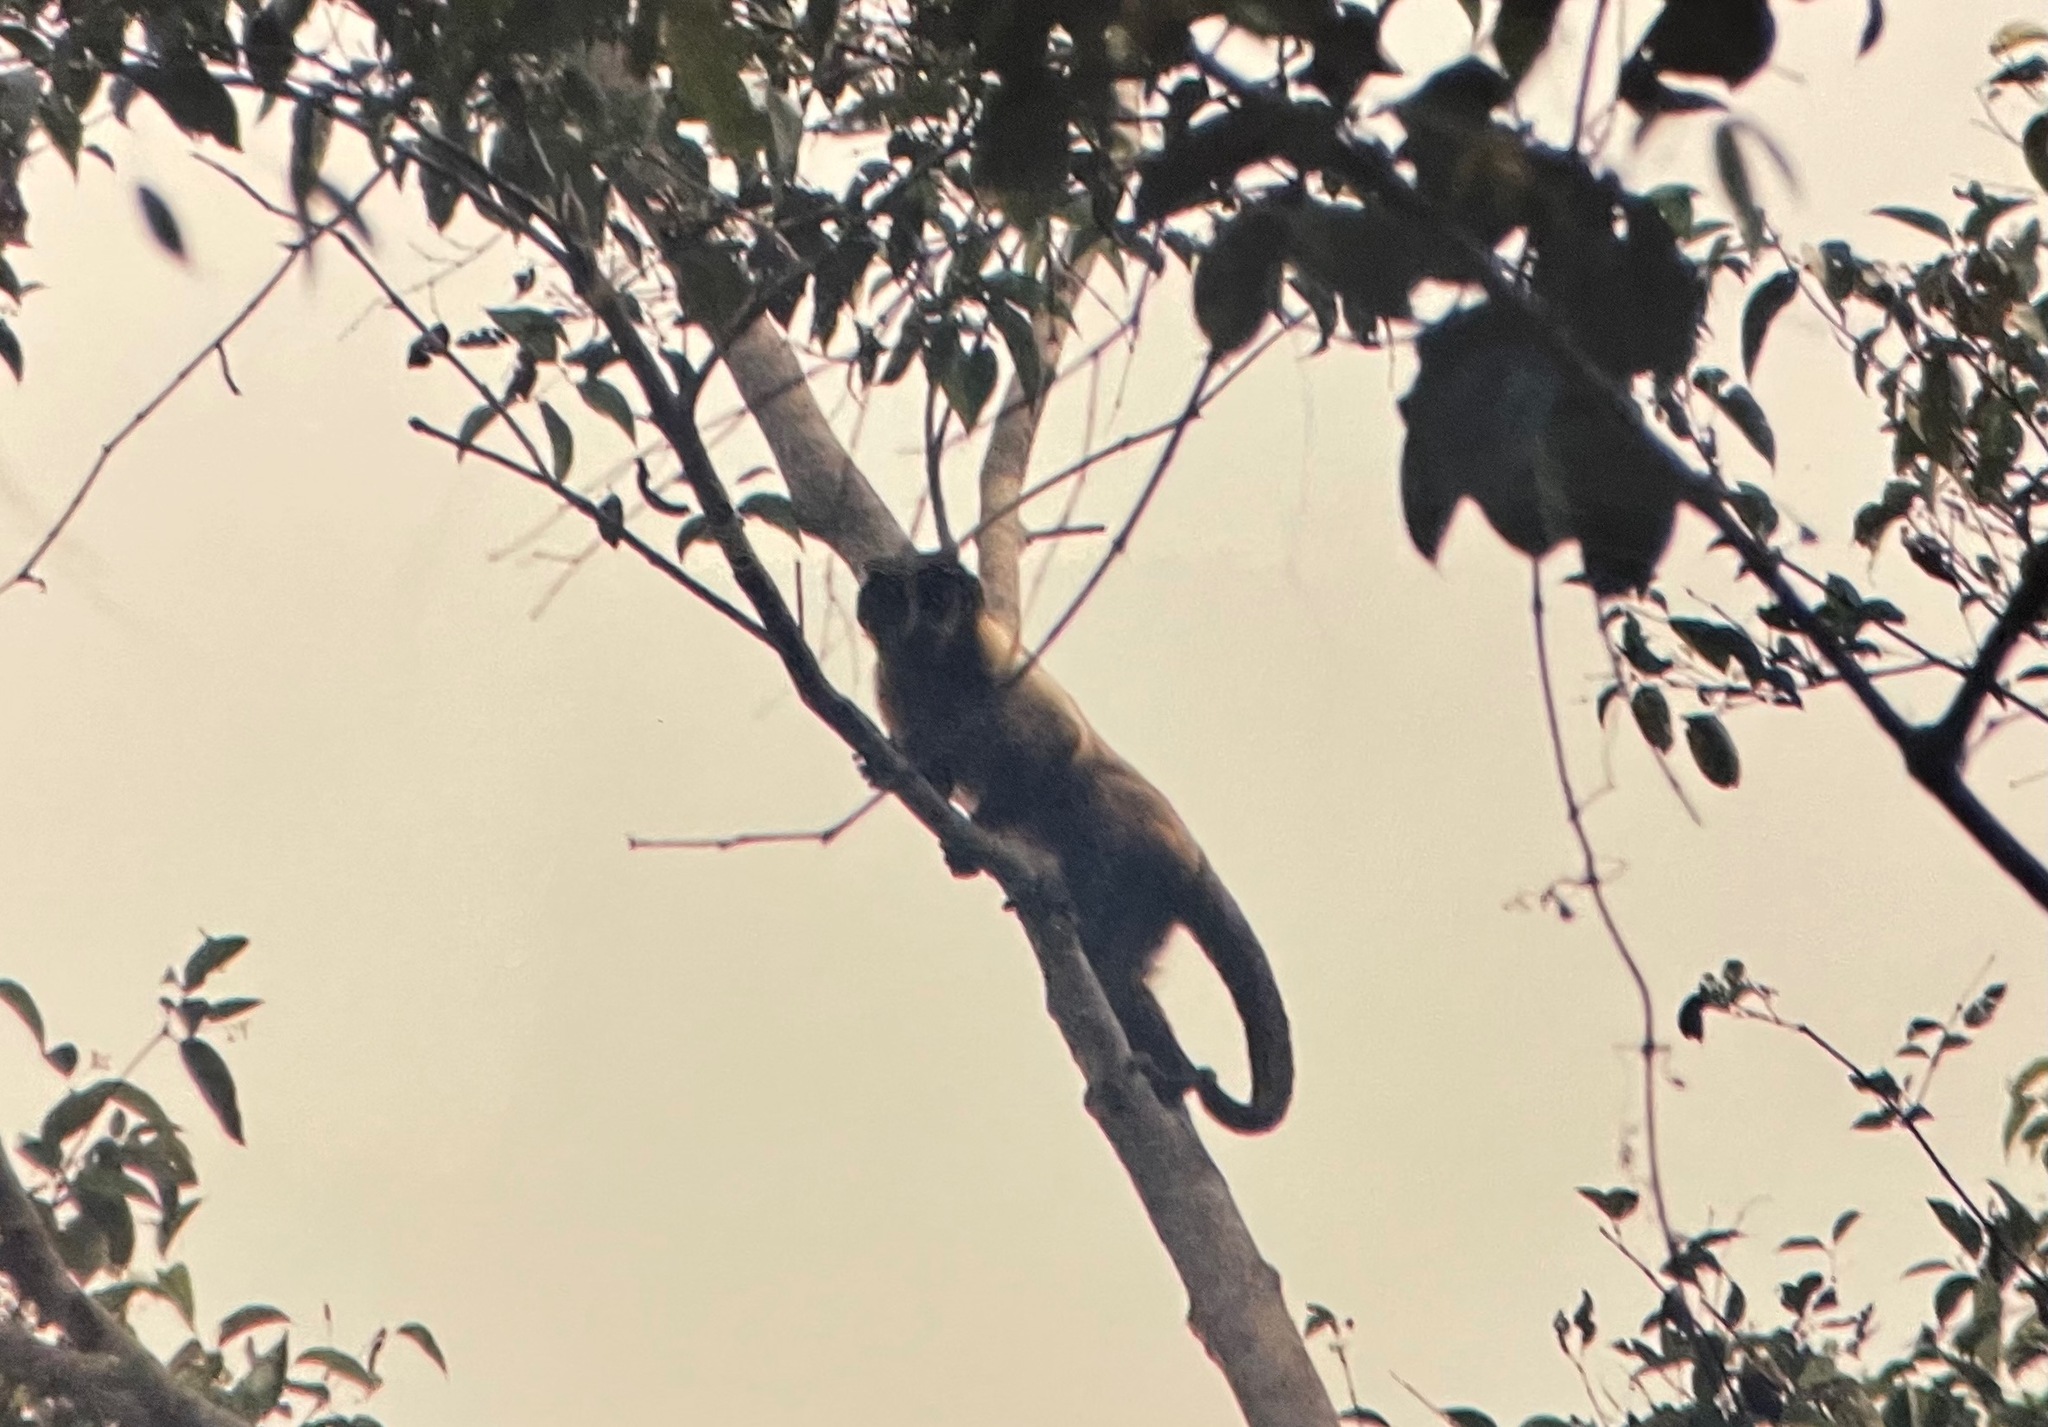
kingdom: Animalia
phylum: Chordata
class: Mammalia
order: Primates
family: Cebidae
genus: Sapajus
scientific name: Sapajus apella
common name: Tufted capuchin
